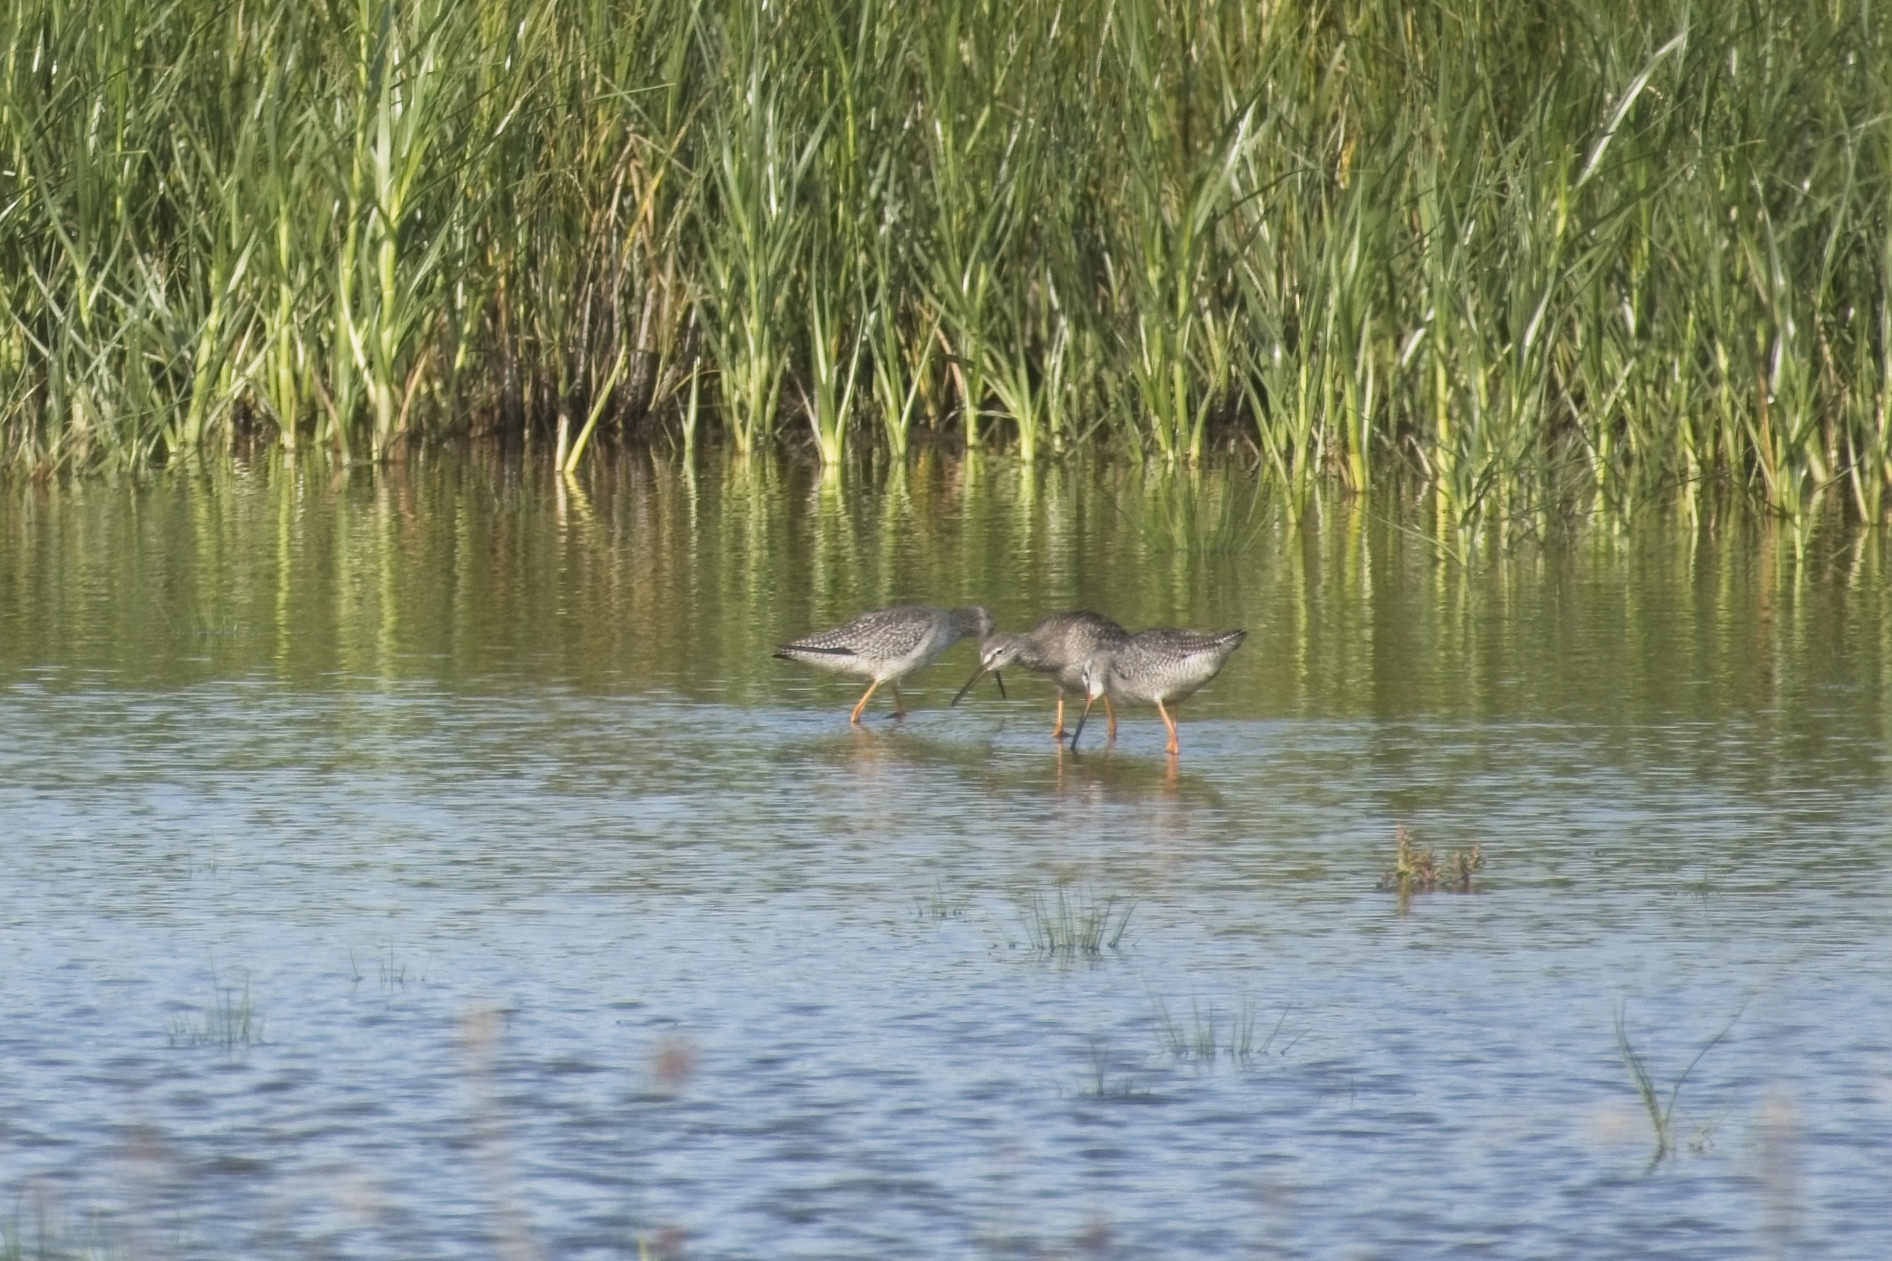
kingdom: Animalia
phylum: Chordata
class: Aves
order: Charadriiformes
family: Scolopacidae
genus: Tringa
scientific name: Tringa erythropus
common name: Spotted redshank
